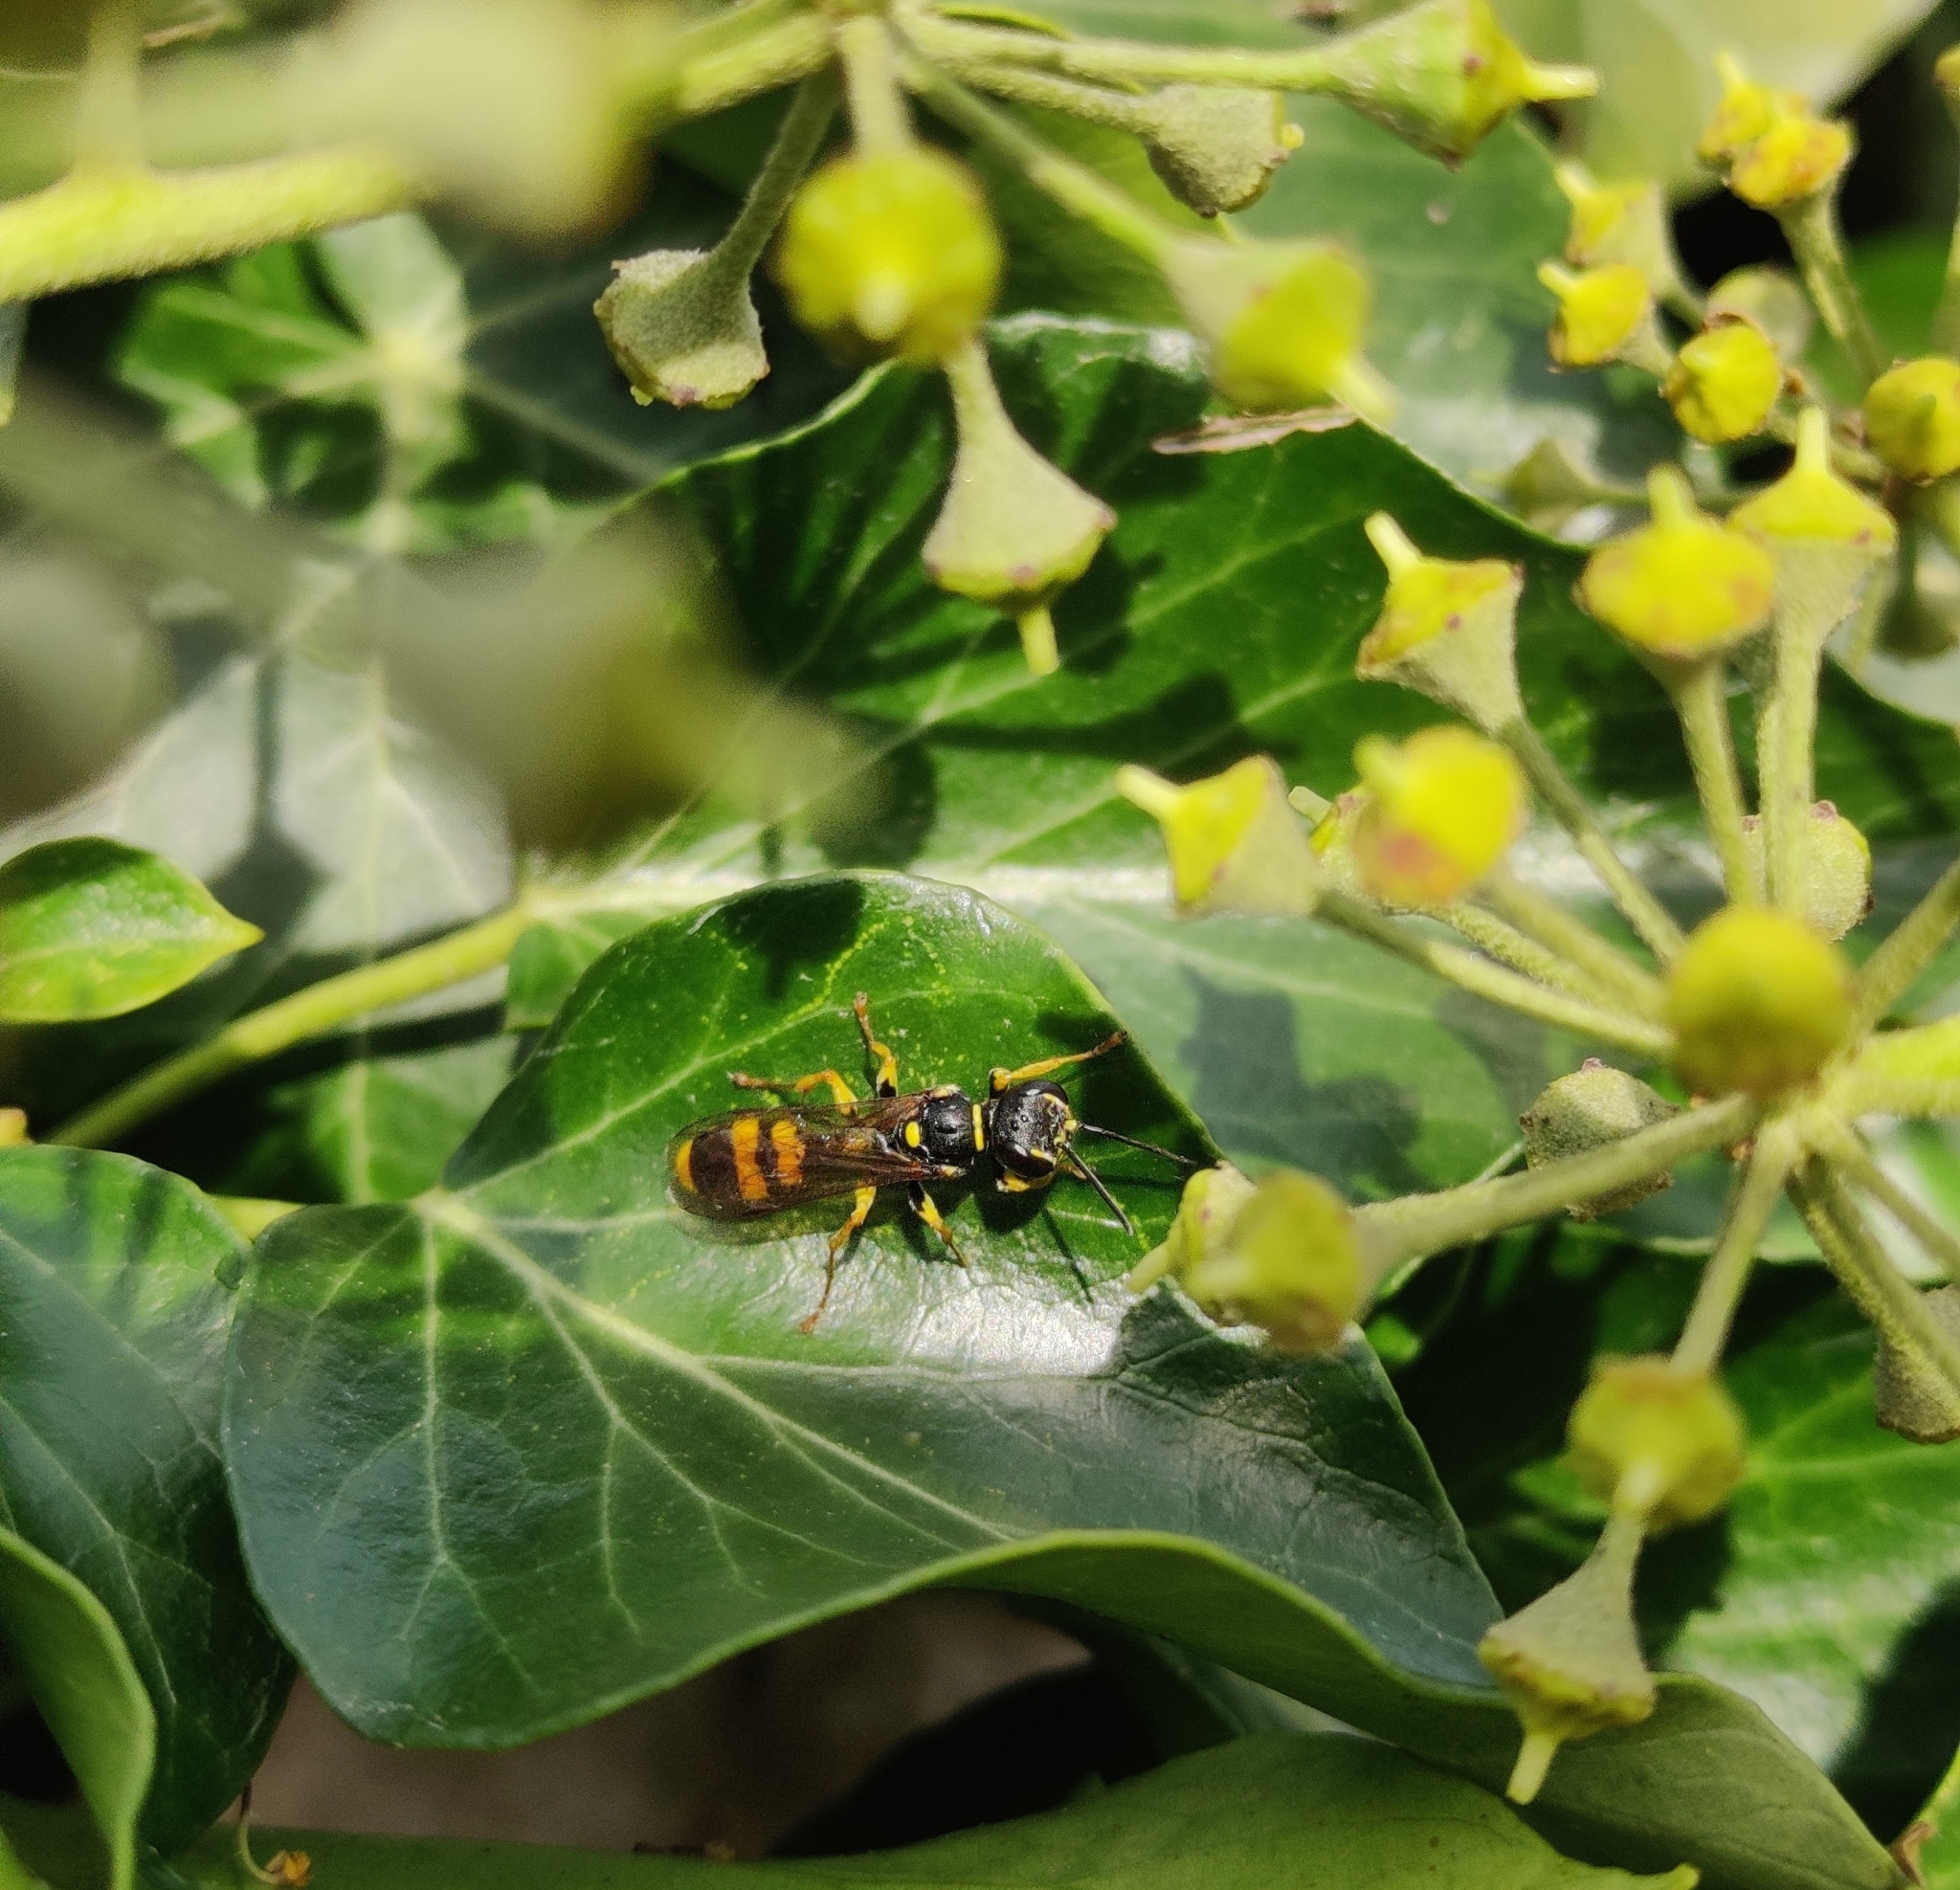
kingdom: Animalia
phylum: Arthropoda
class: Insecta
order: Hymenoptera
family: Crabronidae
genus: Mellinus
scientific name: Mellinus arvensis
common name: Field digger wasp
